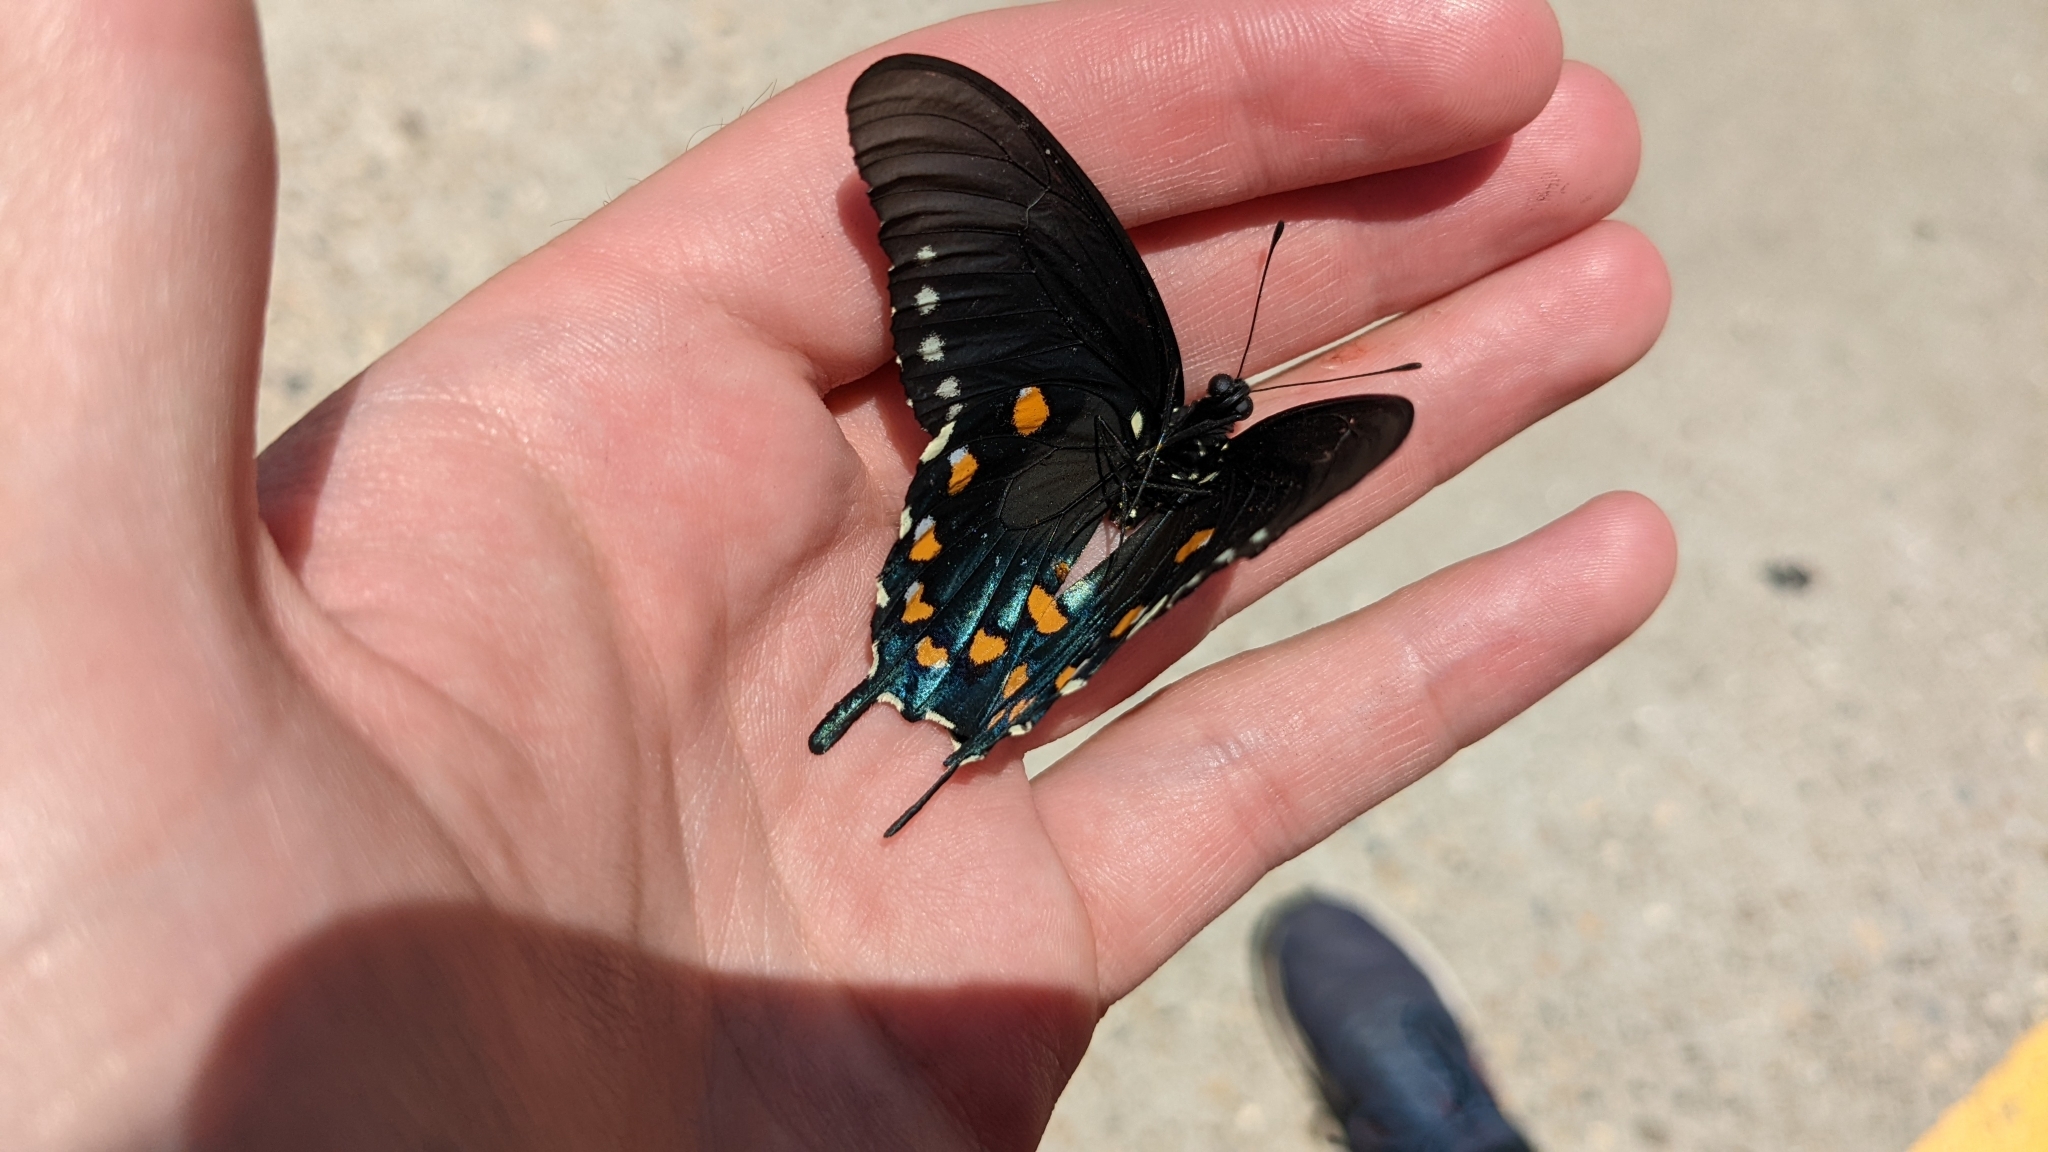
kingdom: Animalia
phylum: Arthropoda
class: Insecta
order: Lepidoptera
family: Papilionidae
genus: Battus
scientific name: Battus philenor
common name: Pipevine swallowtail
